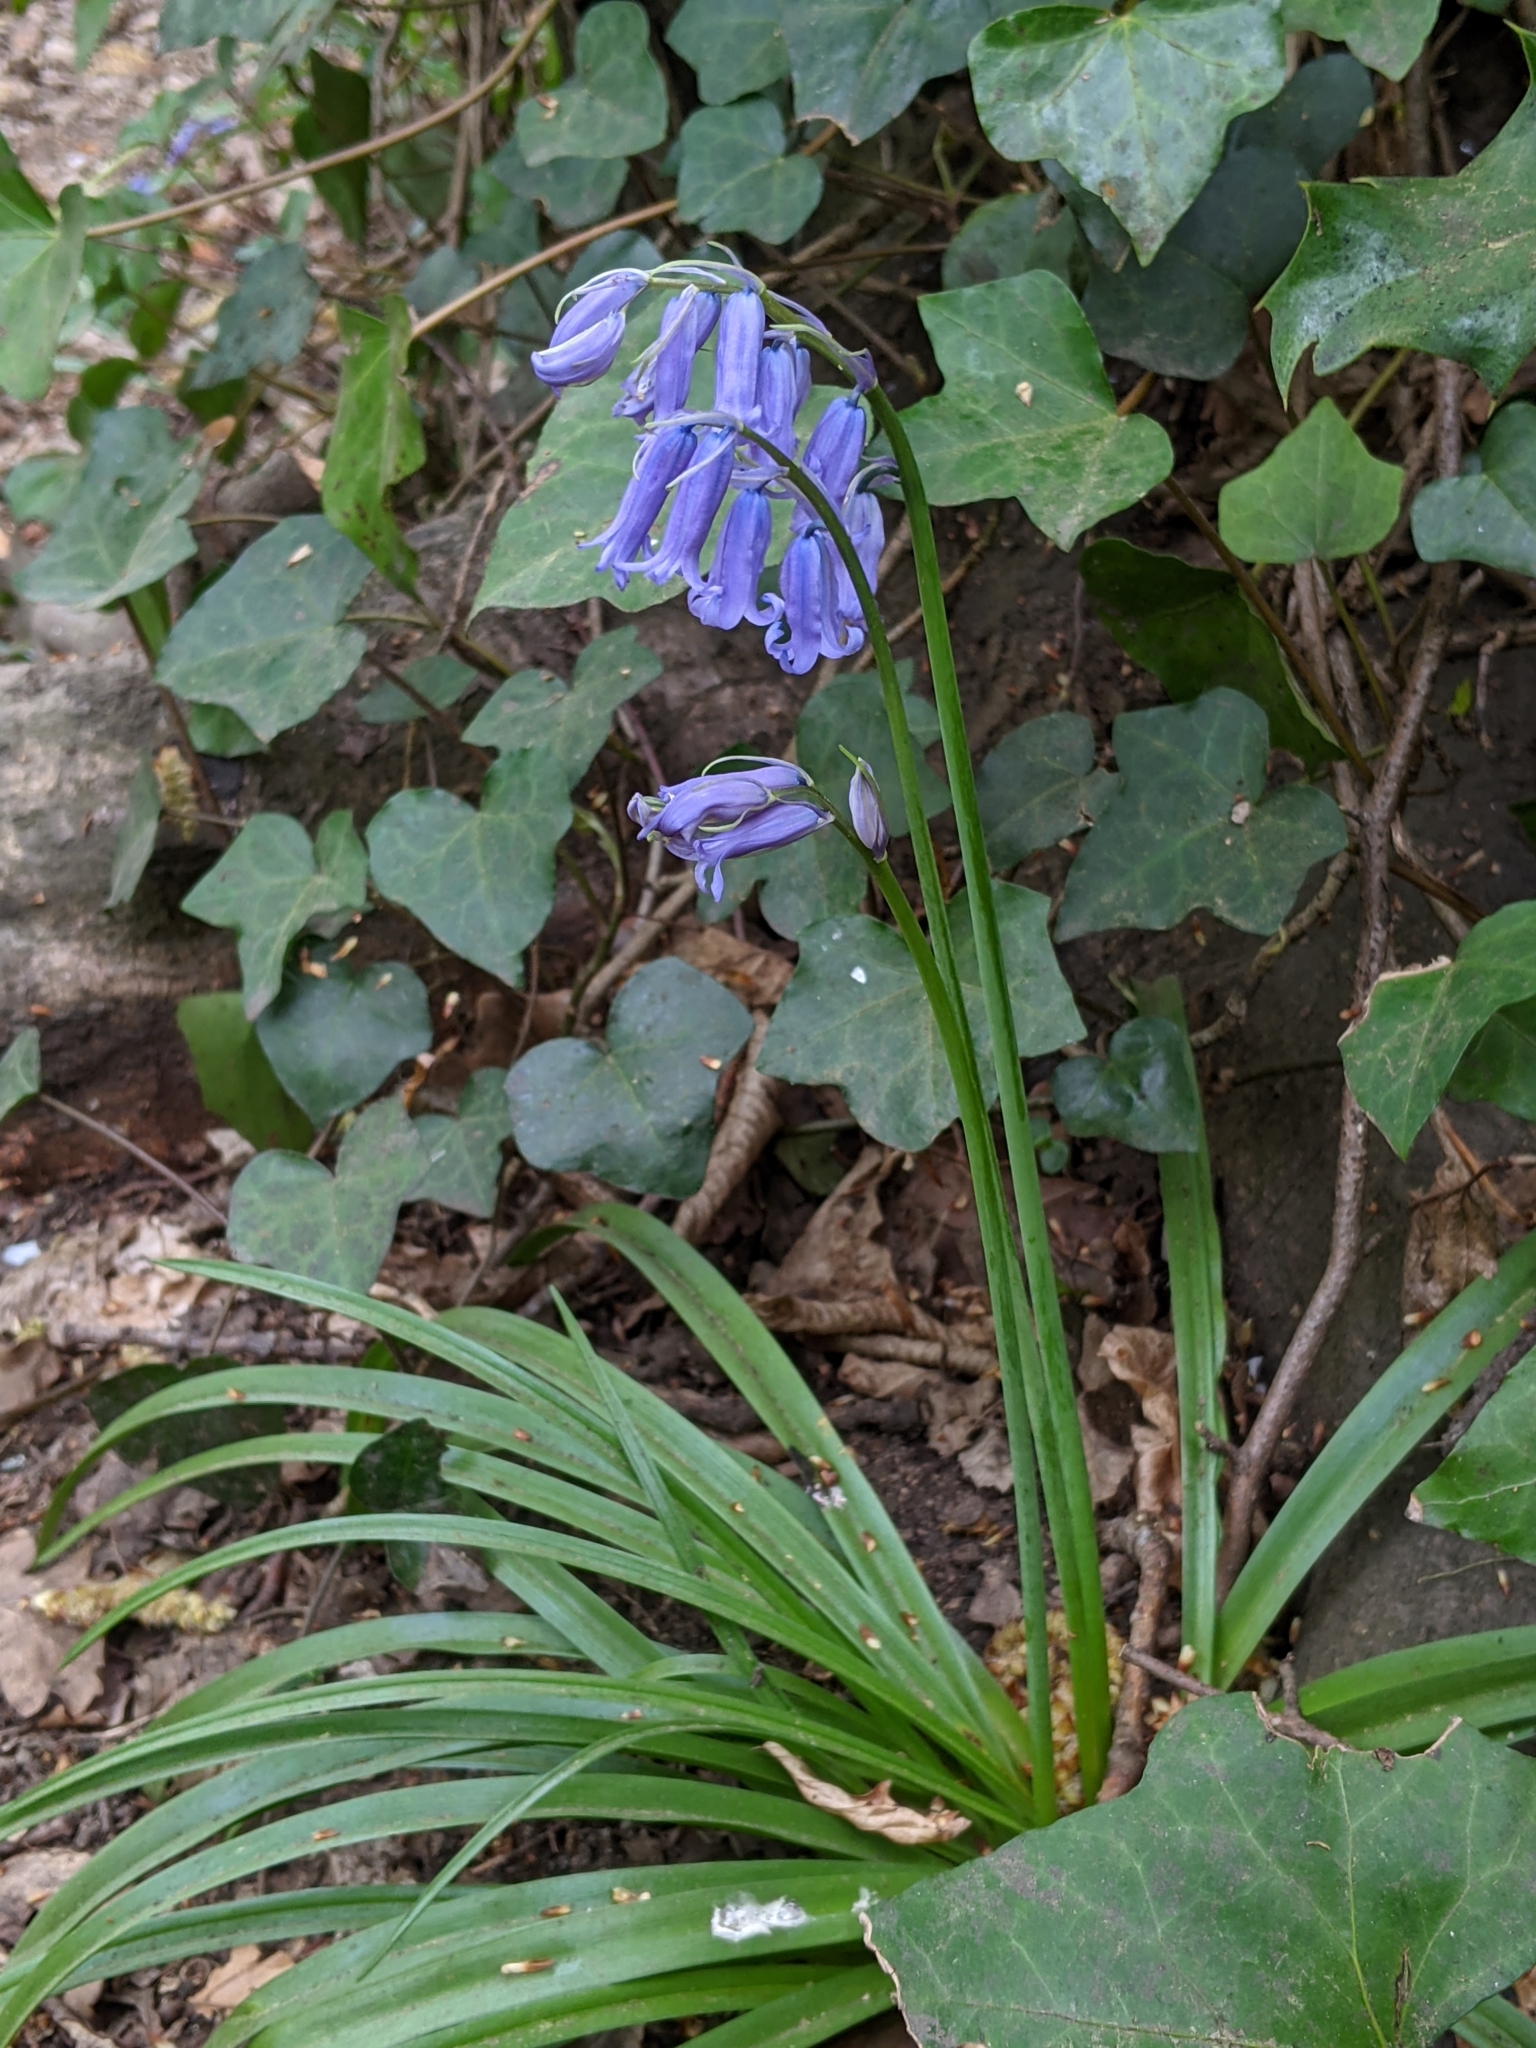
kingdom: Plantae
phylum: Tracheophyta
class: Liliopsida
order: Asparagales
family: Asparagaceae
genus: Hyacinthoides
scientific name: Hyacinthoides non-scripta
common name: Bluebell
